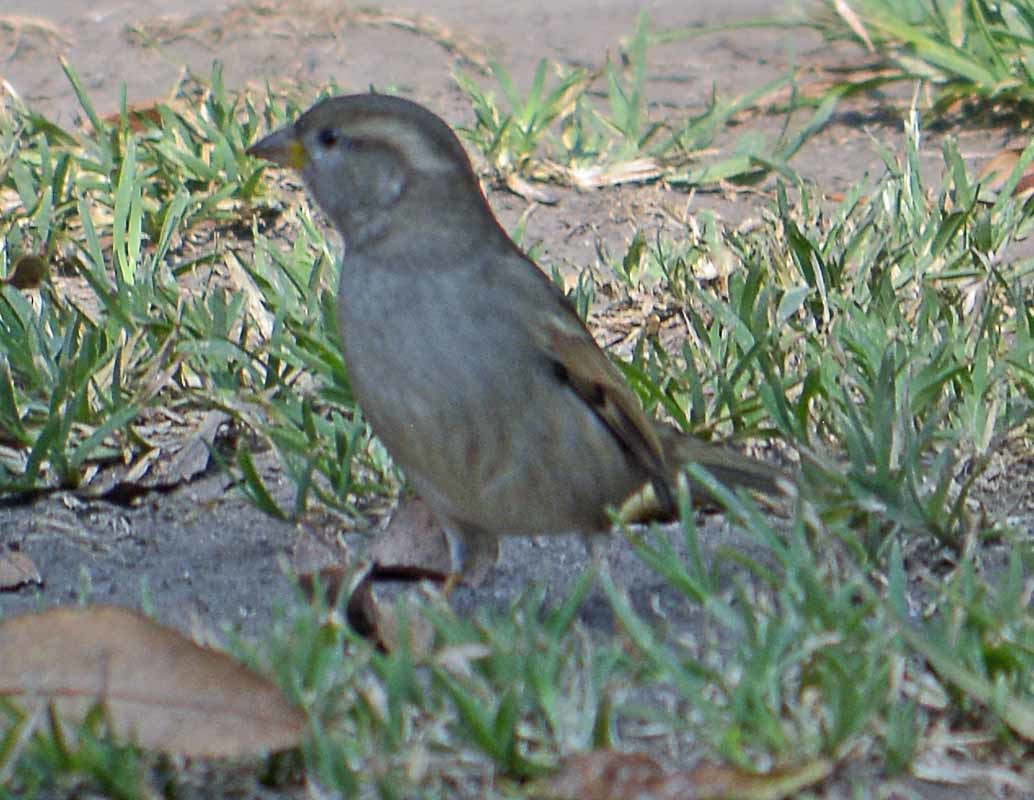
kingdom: Animalia
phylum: Chordata
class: Aves
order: Passeriformes
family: Passeridae
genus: Passer
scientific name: Passer domesticus
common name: House sparrow
